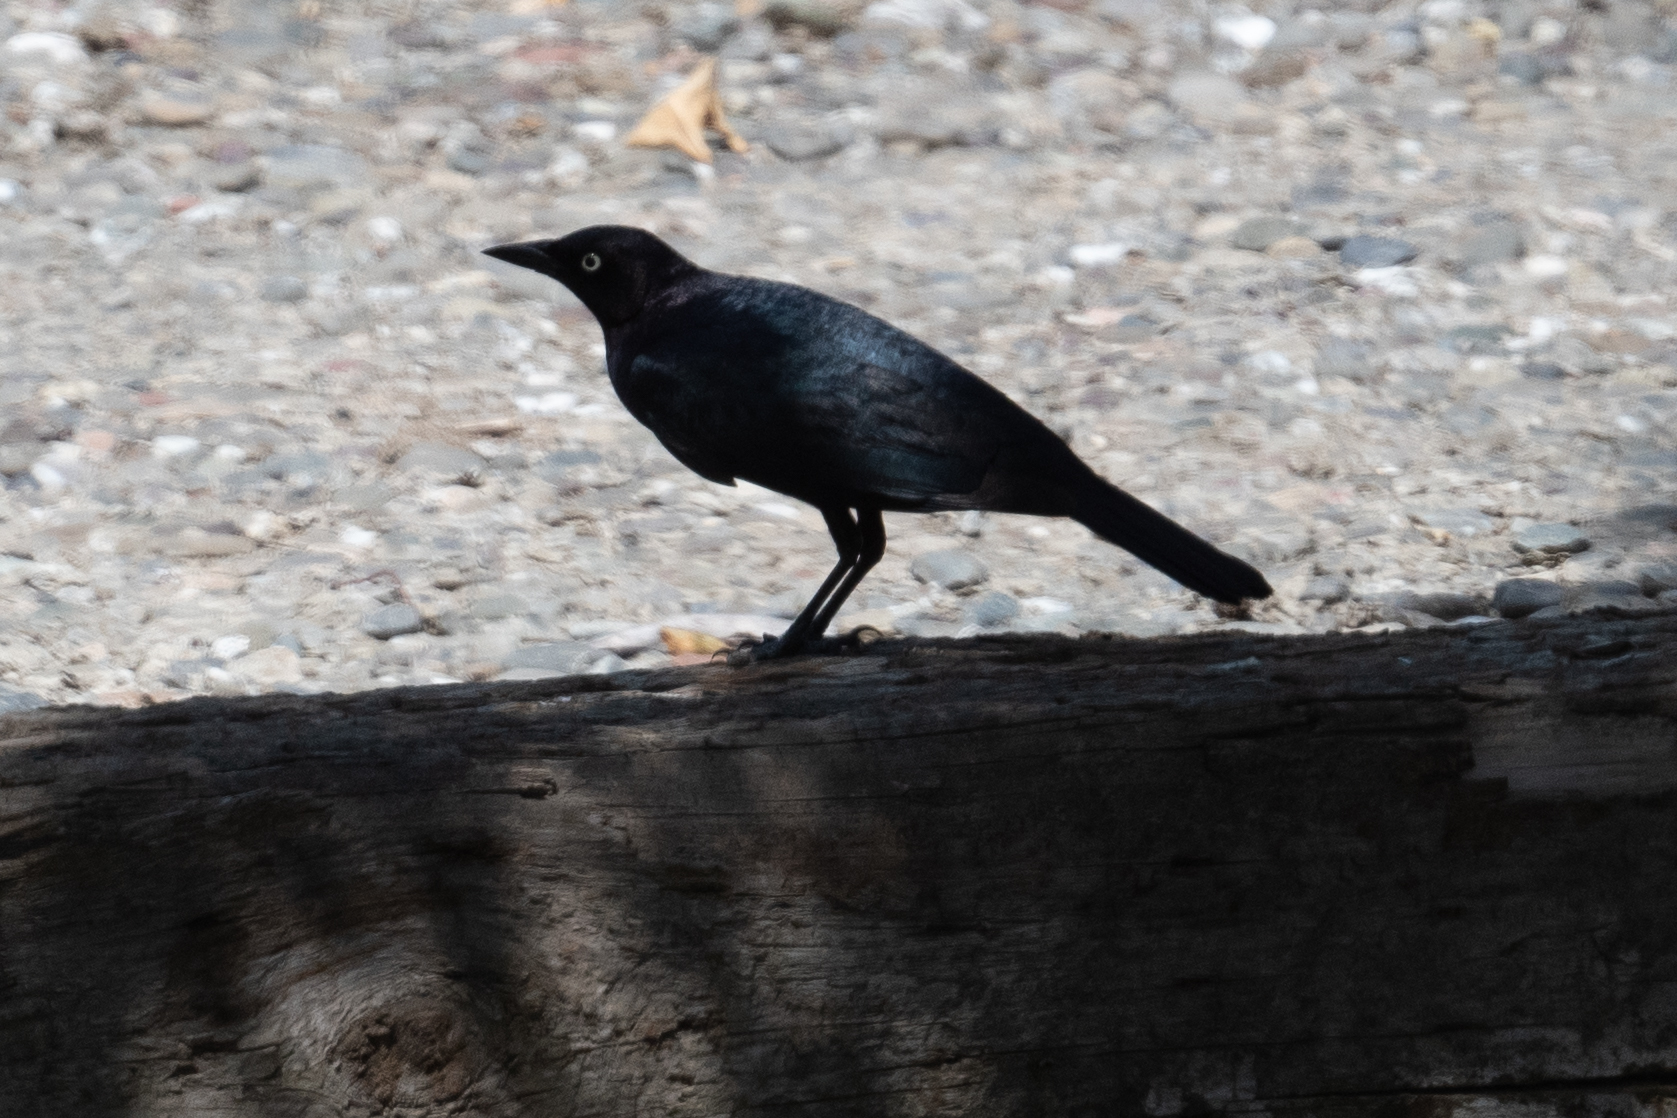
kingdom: Animalia
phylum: Chordata
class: Aves
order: Passeriformes
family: Icteridae
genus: Quiscalus
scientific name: Quiscalus mexicanus
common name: Great-tailed grackle
